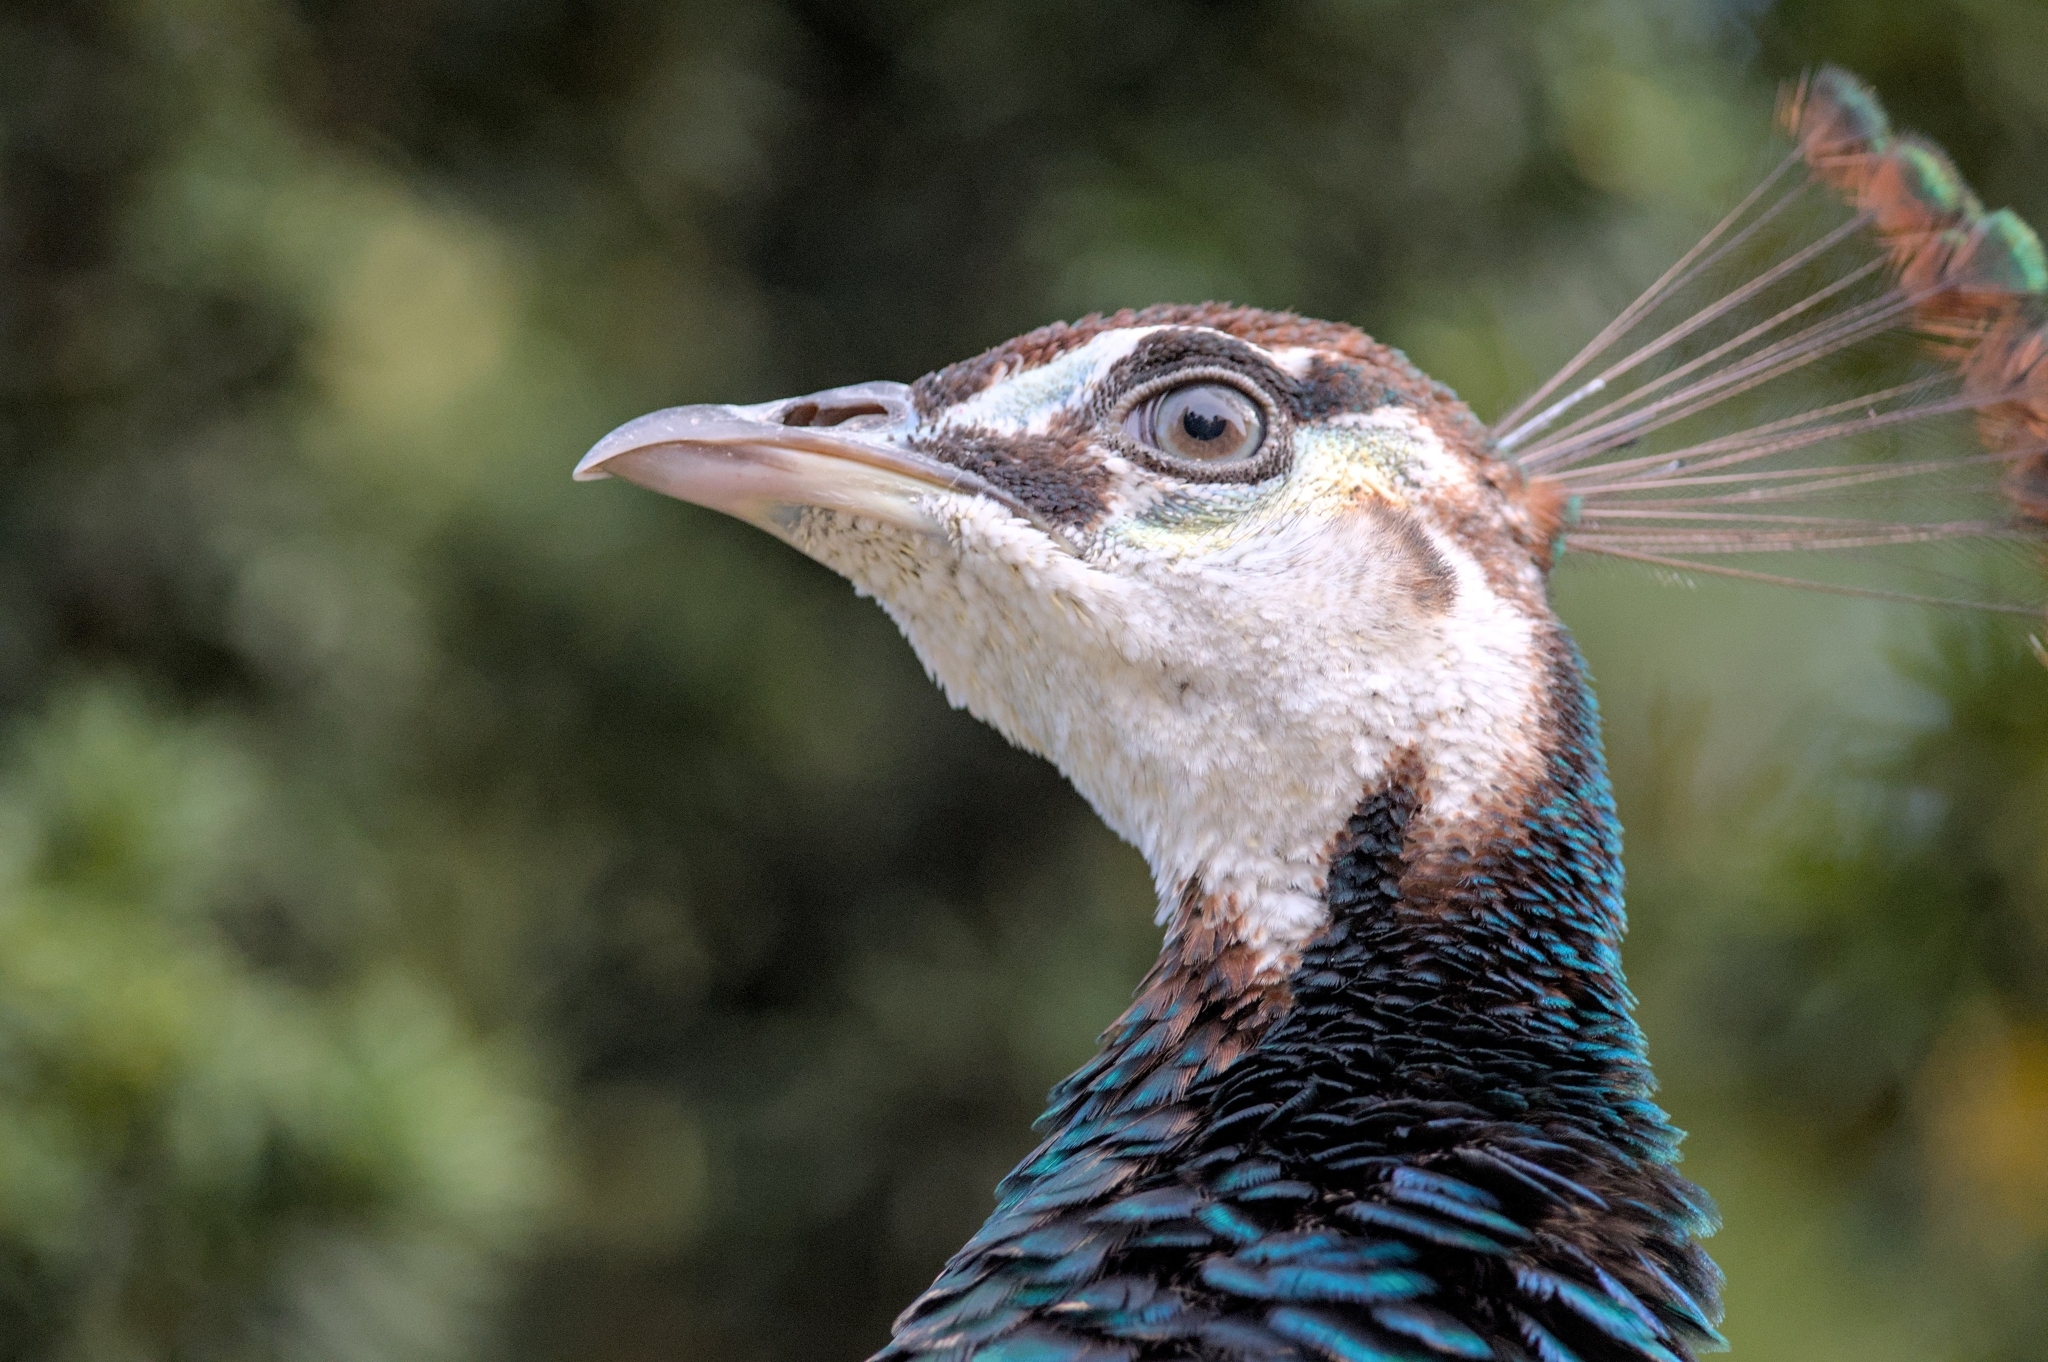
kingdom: Animalia
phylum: Chordata
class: Aves
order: Galliformes
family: Phasianidae
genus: Pavo
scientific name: Pavo cristatus
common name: Indian peafowl
